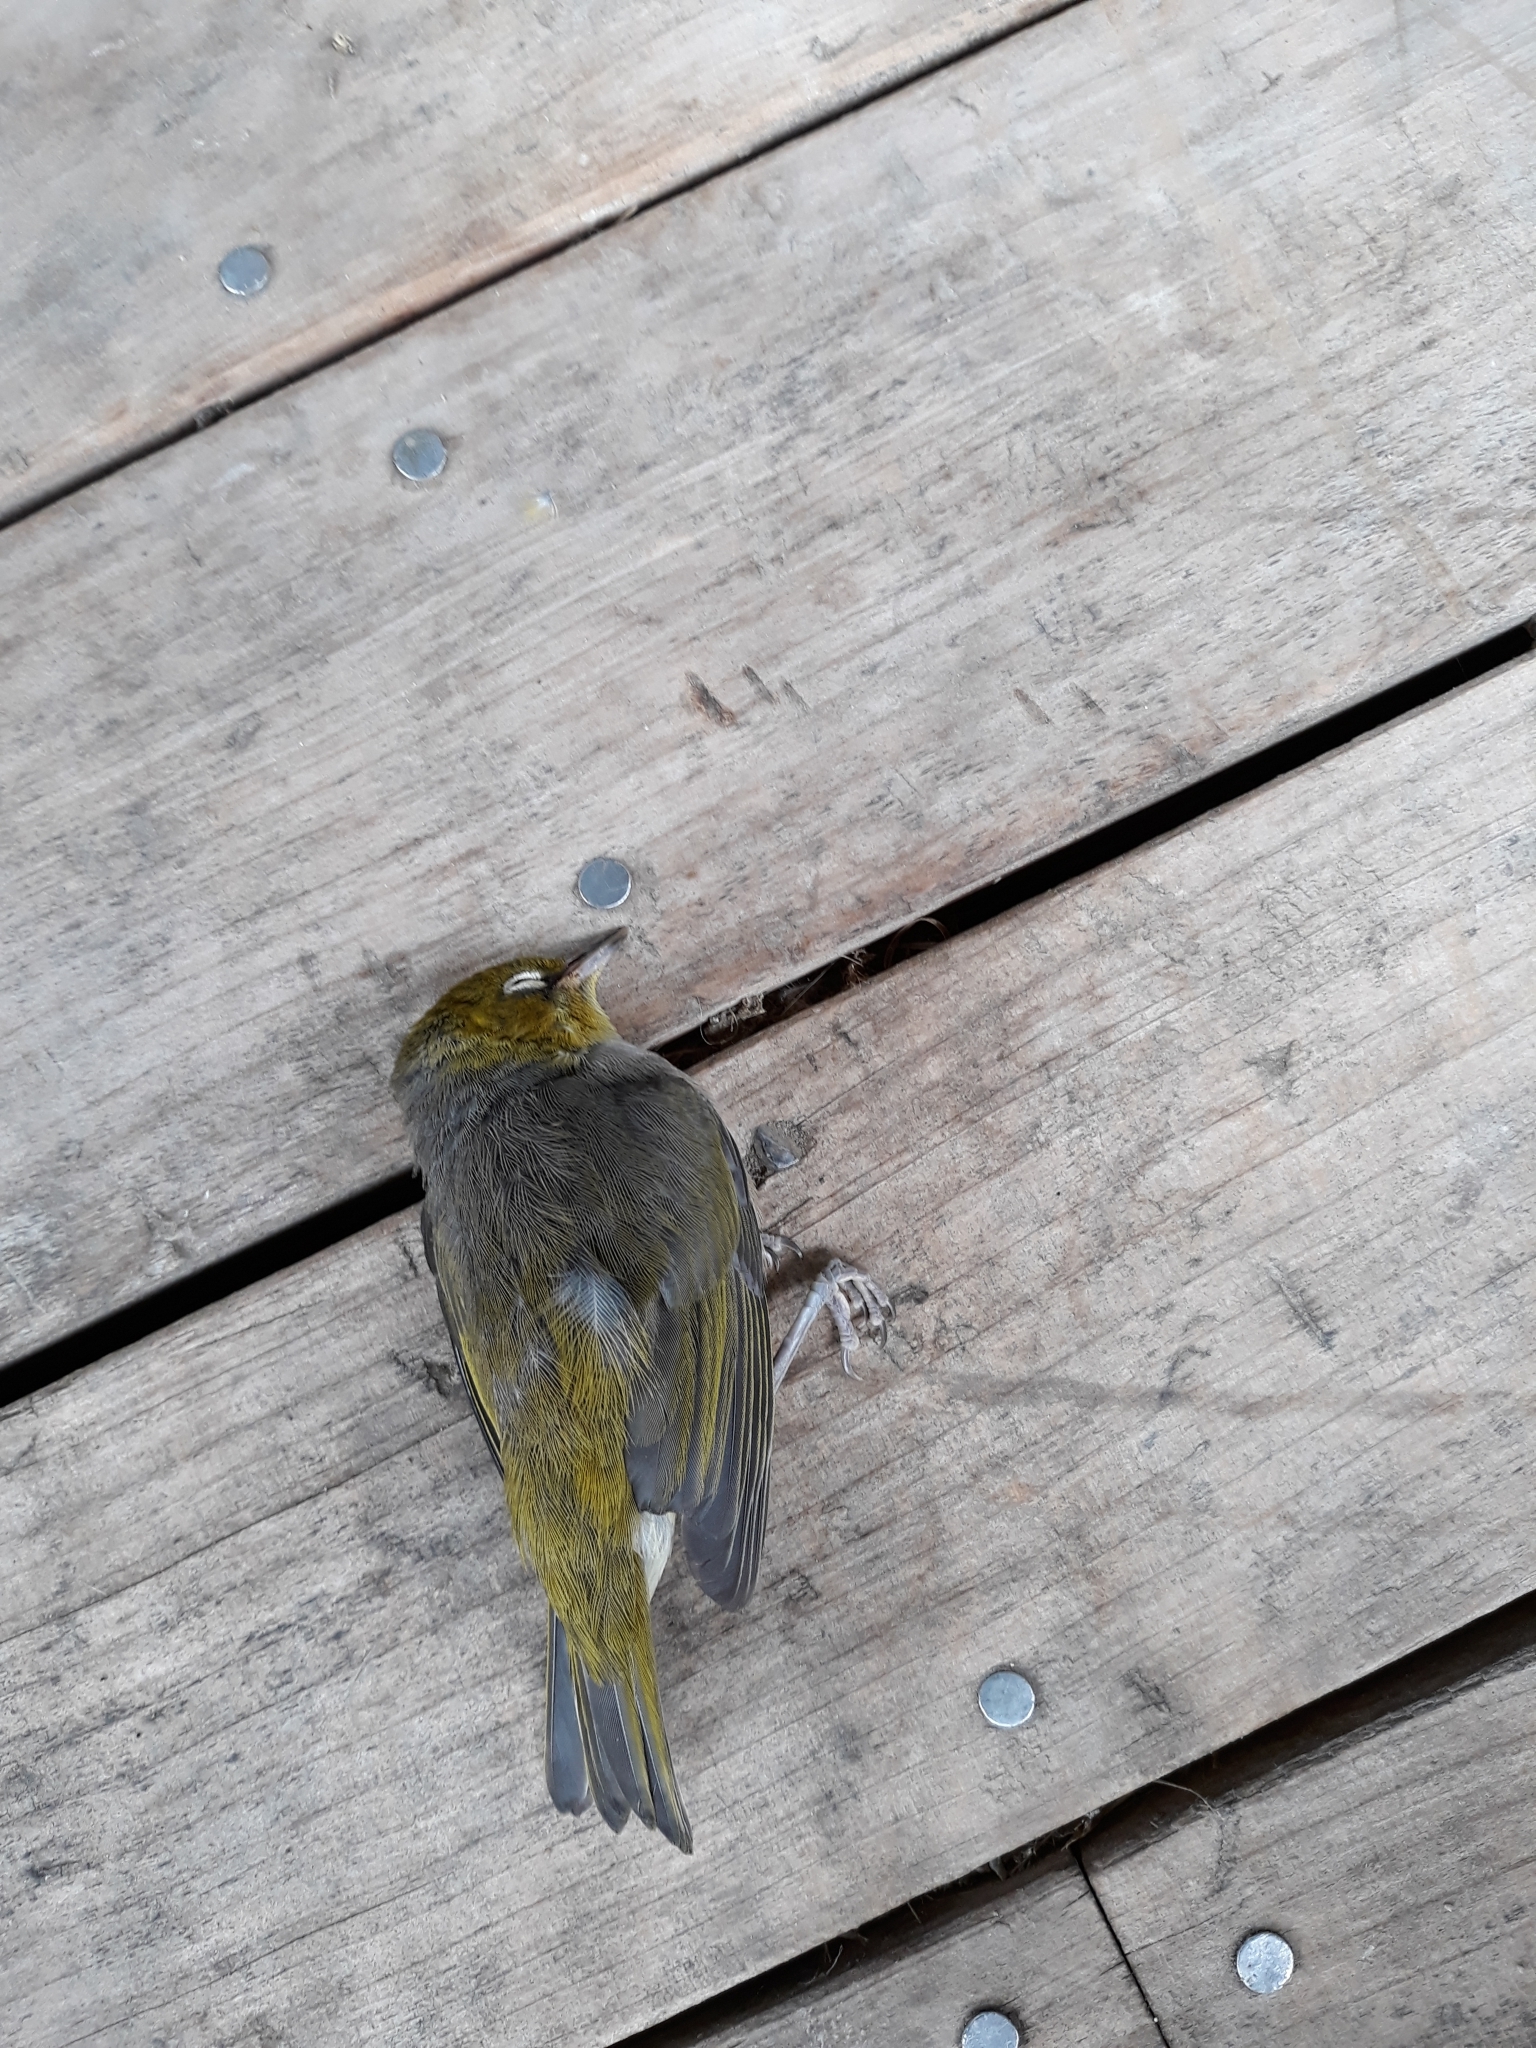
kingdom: Animalia
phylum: Chordata
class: Aves
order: Passeriformes
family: Zosteropidae
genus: Zosterops
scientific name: Zosterops lateralis
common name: Silvereye
